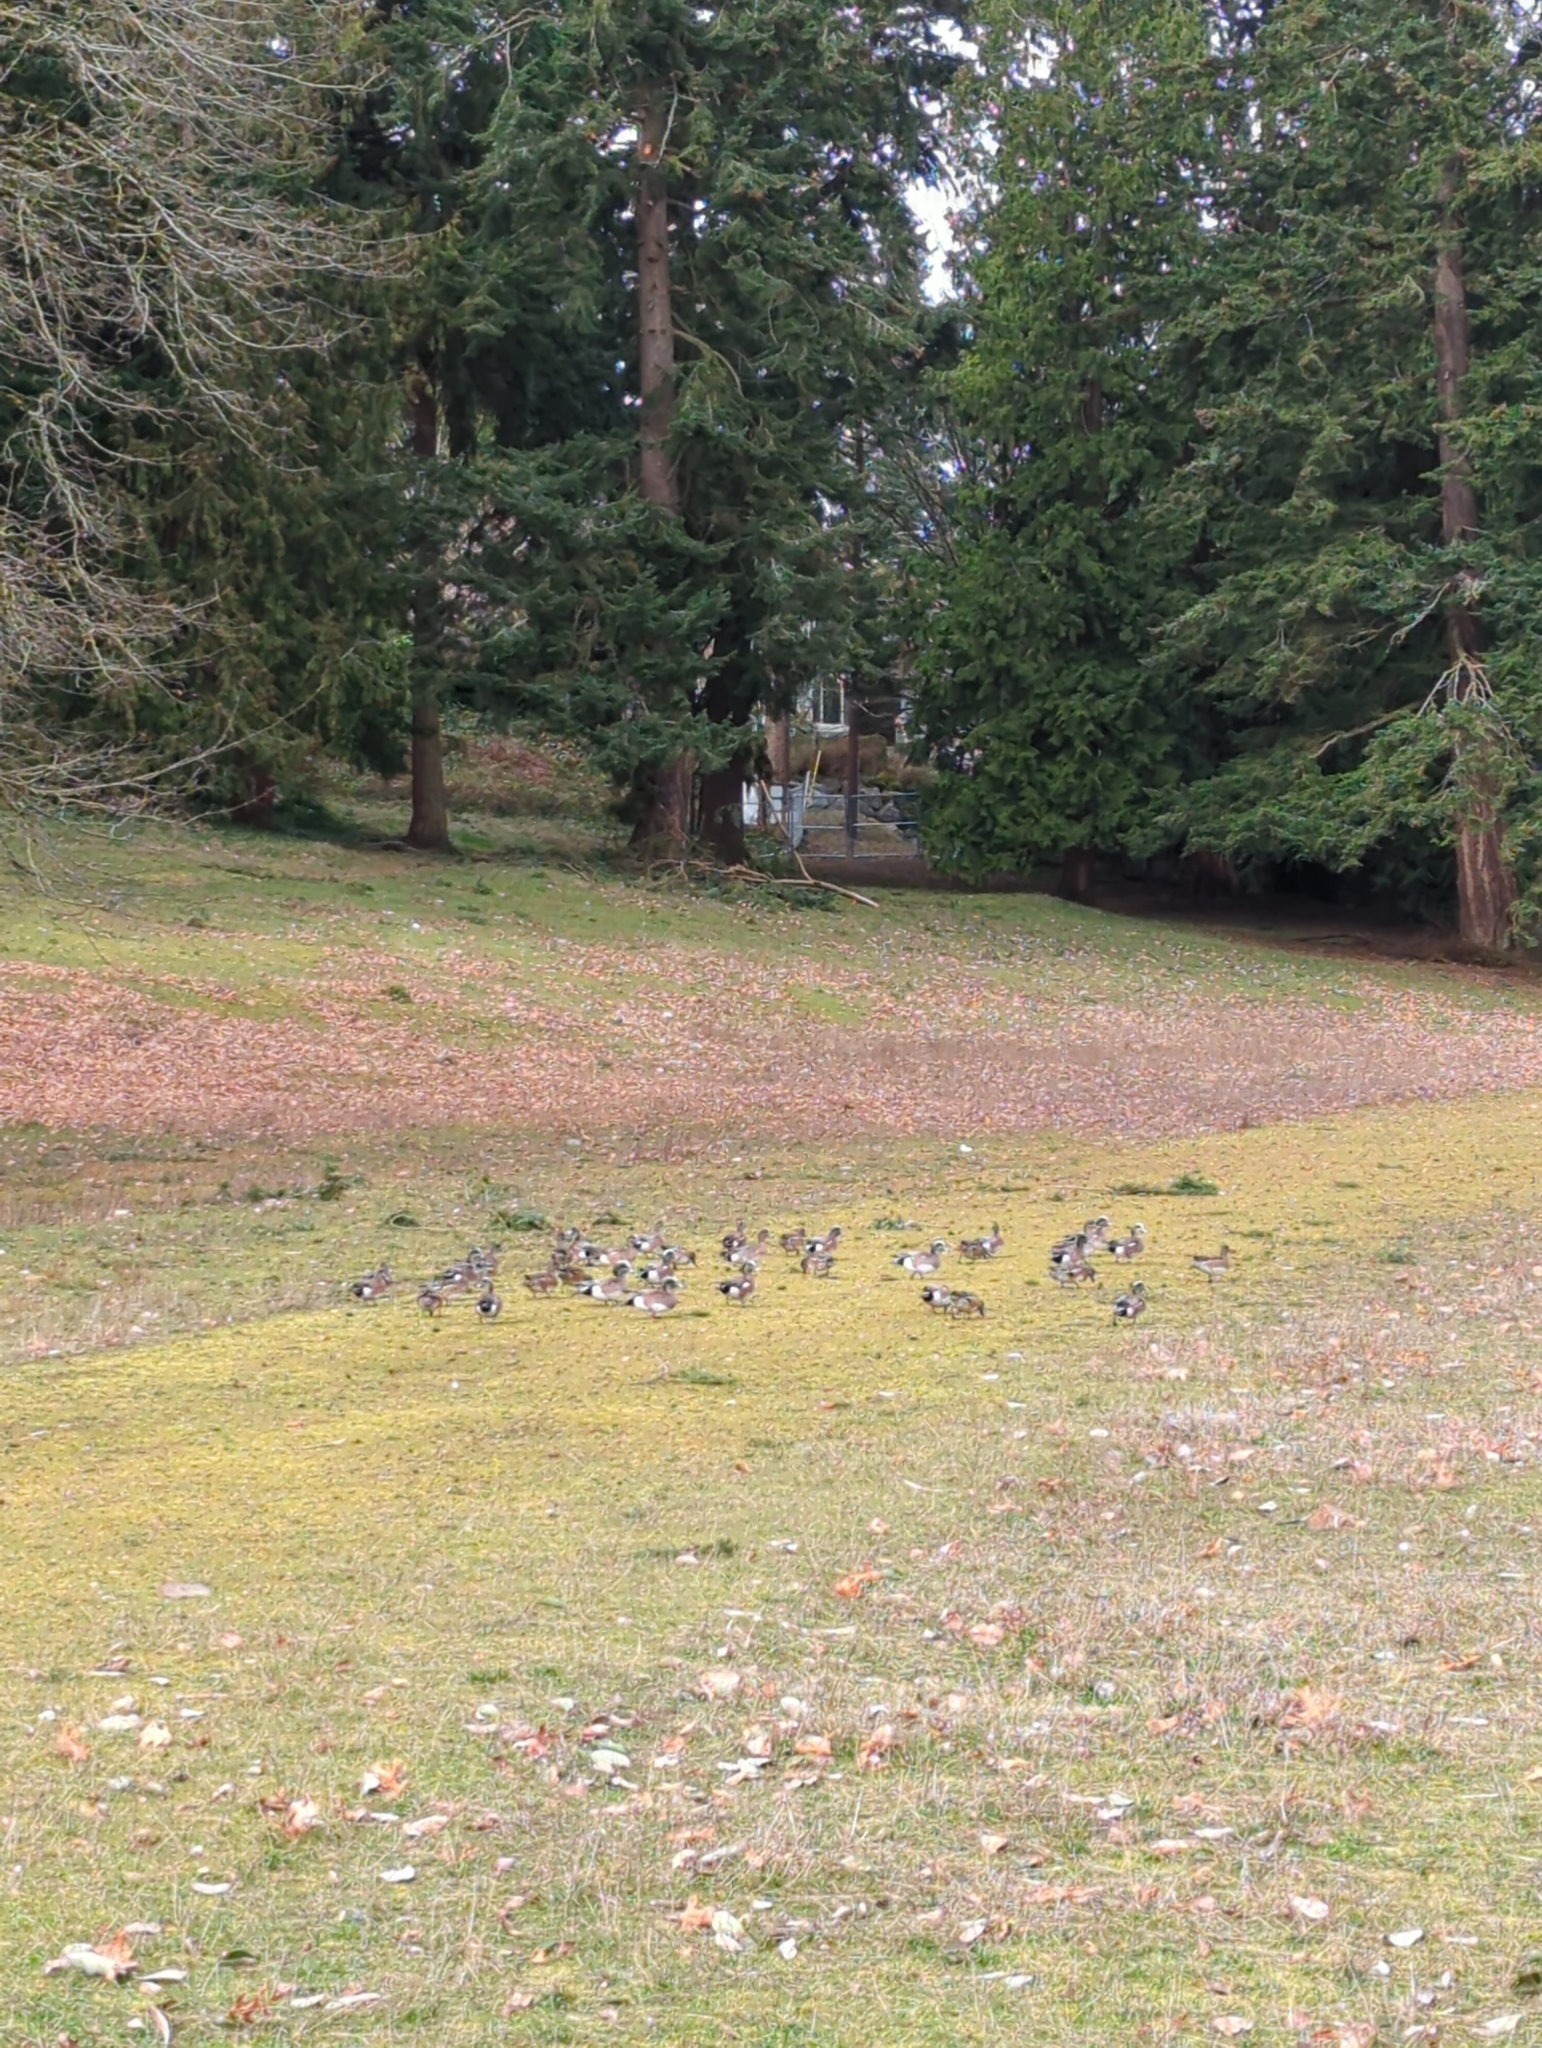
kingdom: Animalia
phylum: Chordata
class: Aves
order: Anseriformes
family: Anatidae
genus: Mareca
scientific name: Mareca americana
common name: American wigeon
